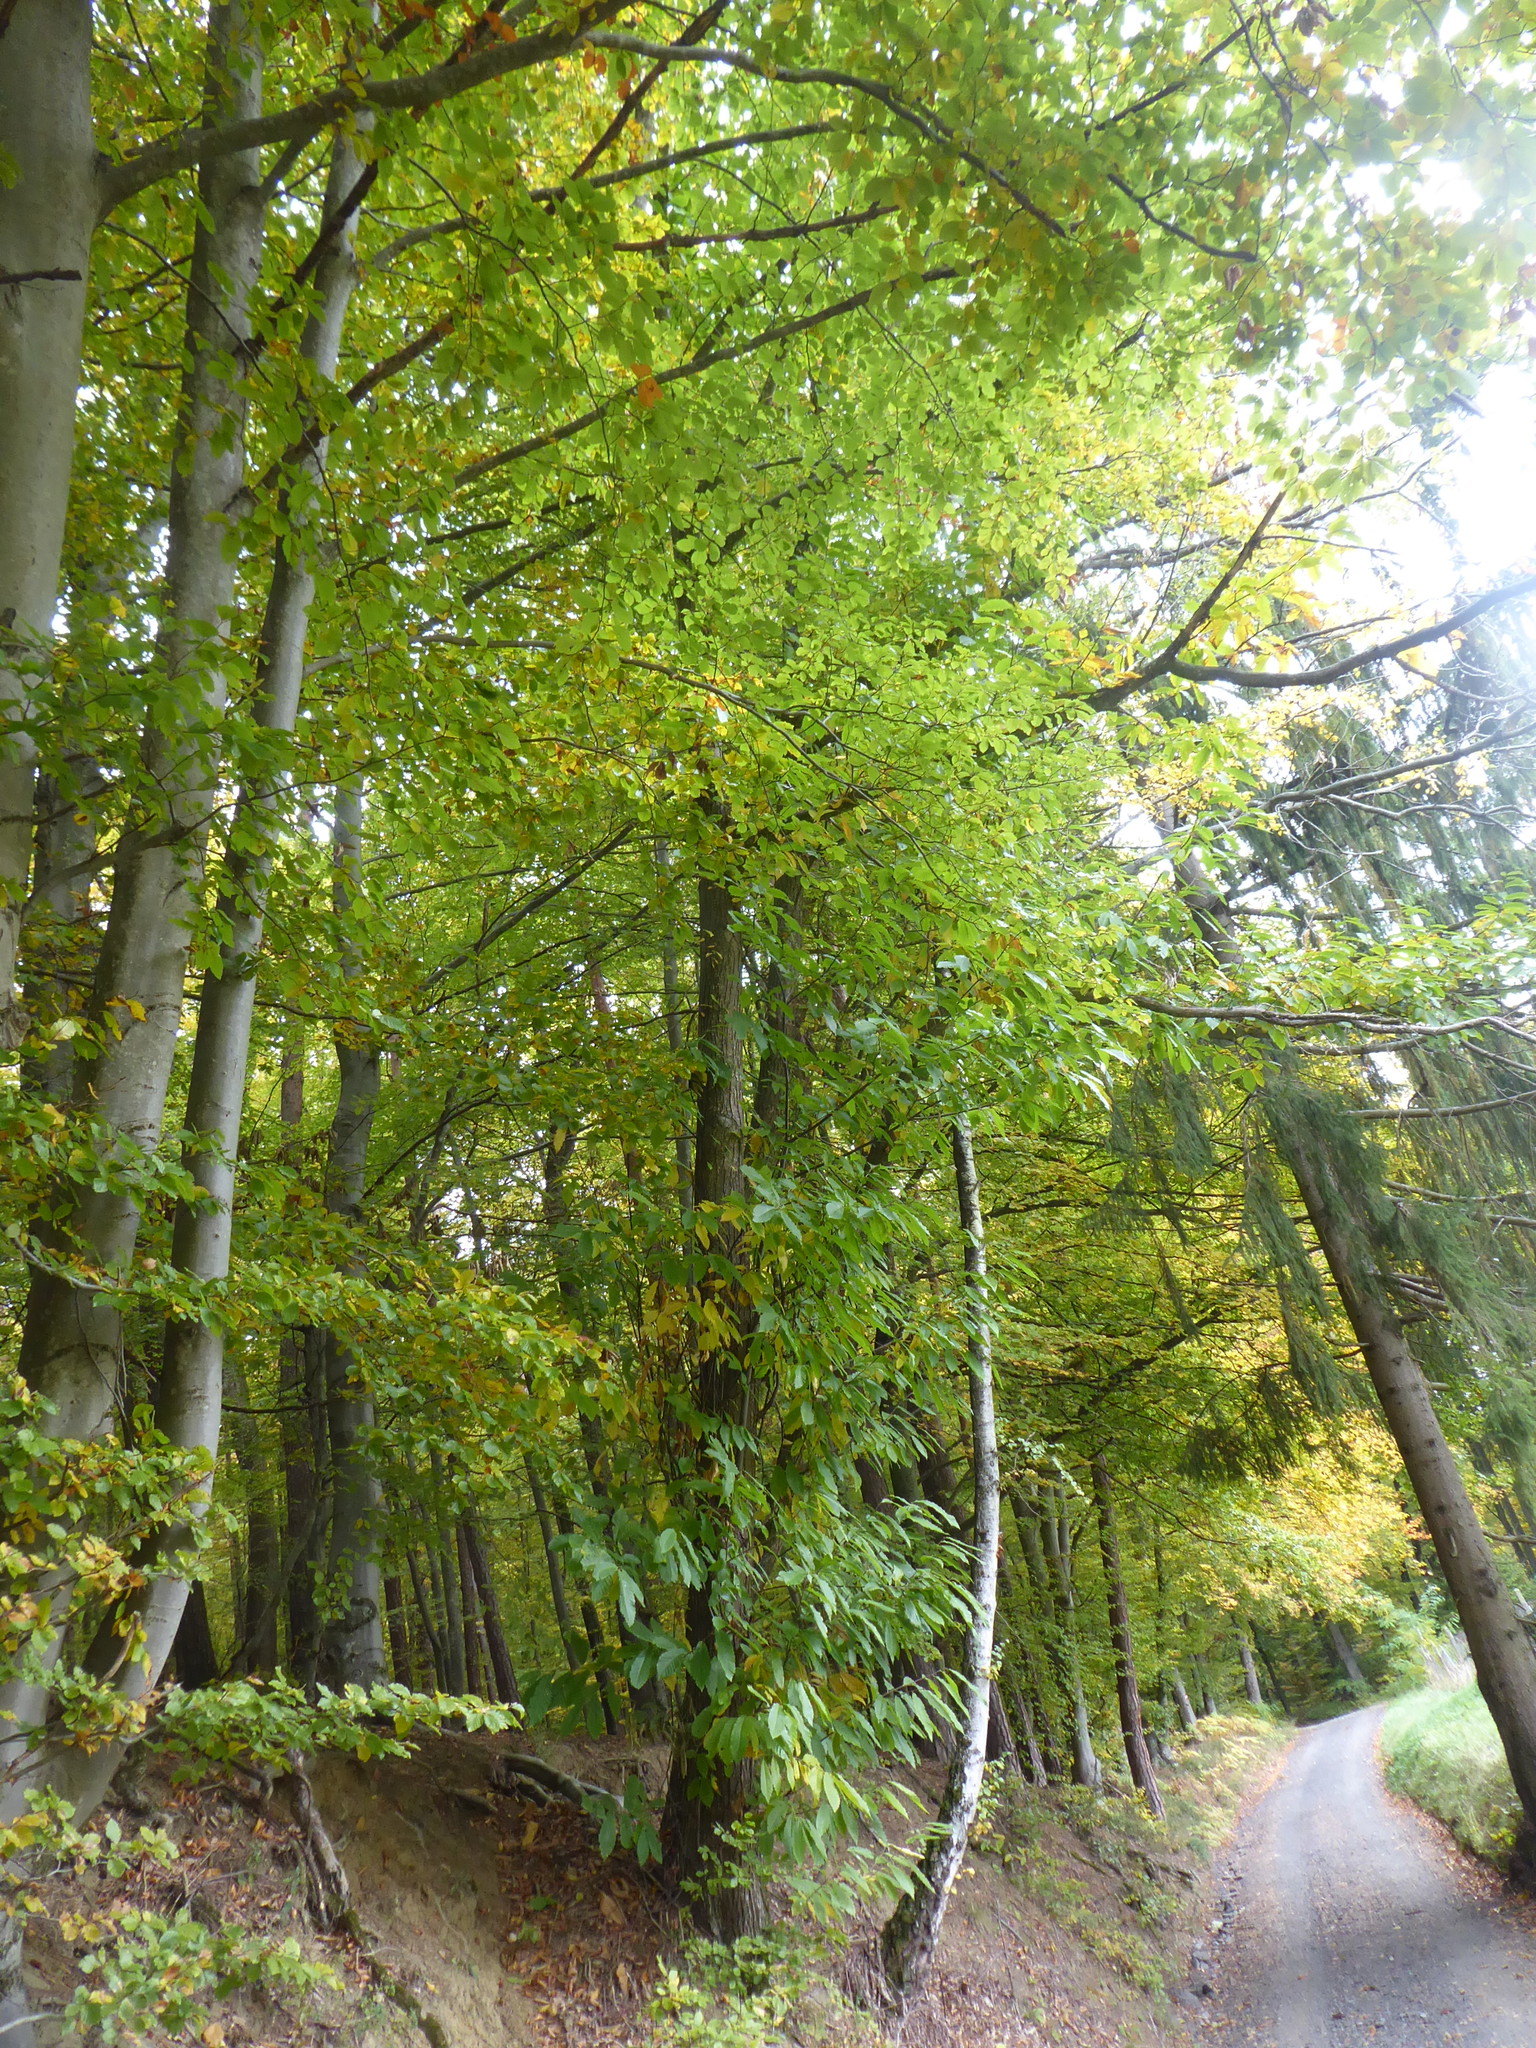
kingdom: Plantae
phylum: Tracheophyta
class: Magnoliopsida
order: Fagales
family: Fagaceae
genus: Castanea
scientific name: Castanea sativa
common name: Sweet chestnut
